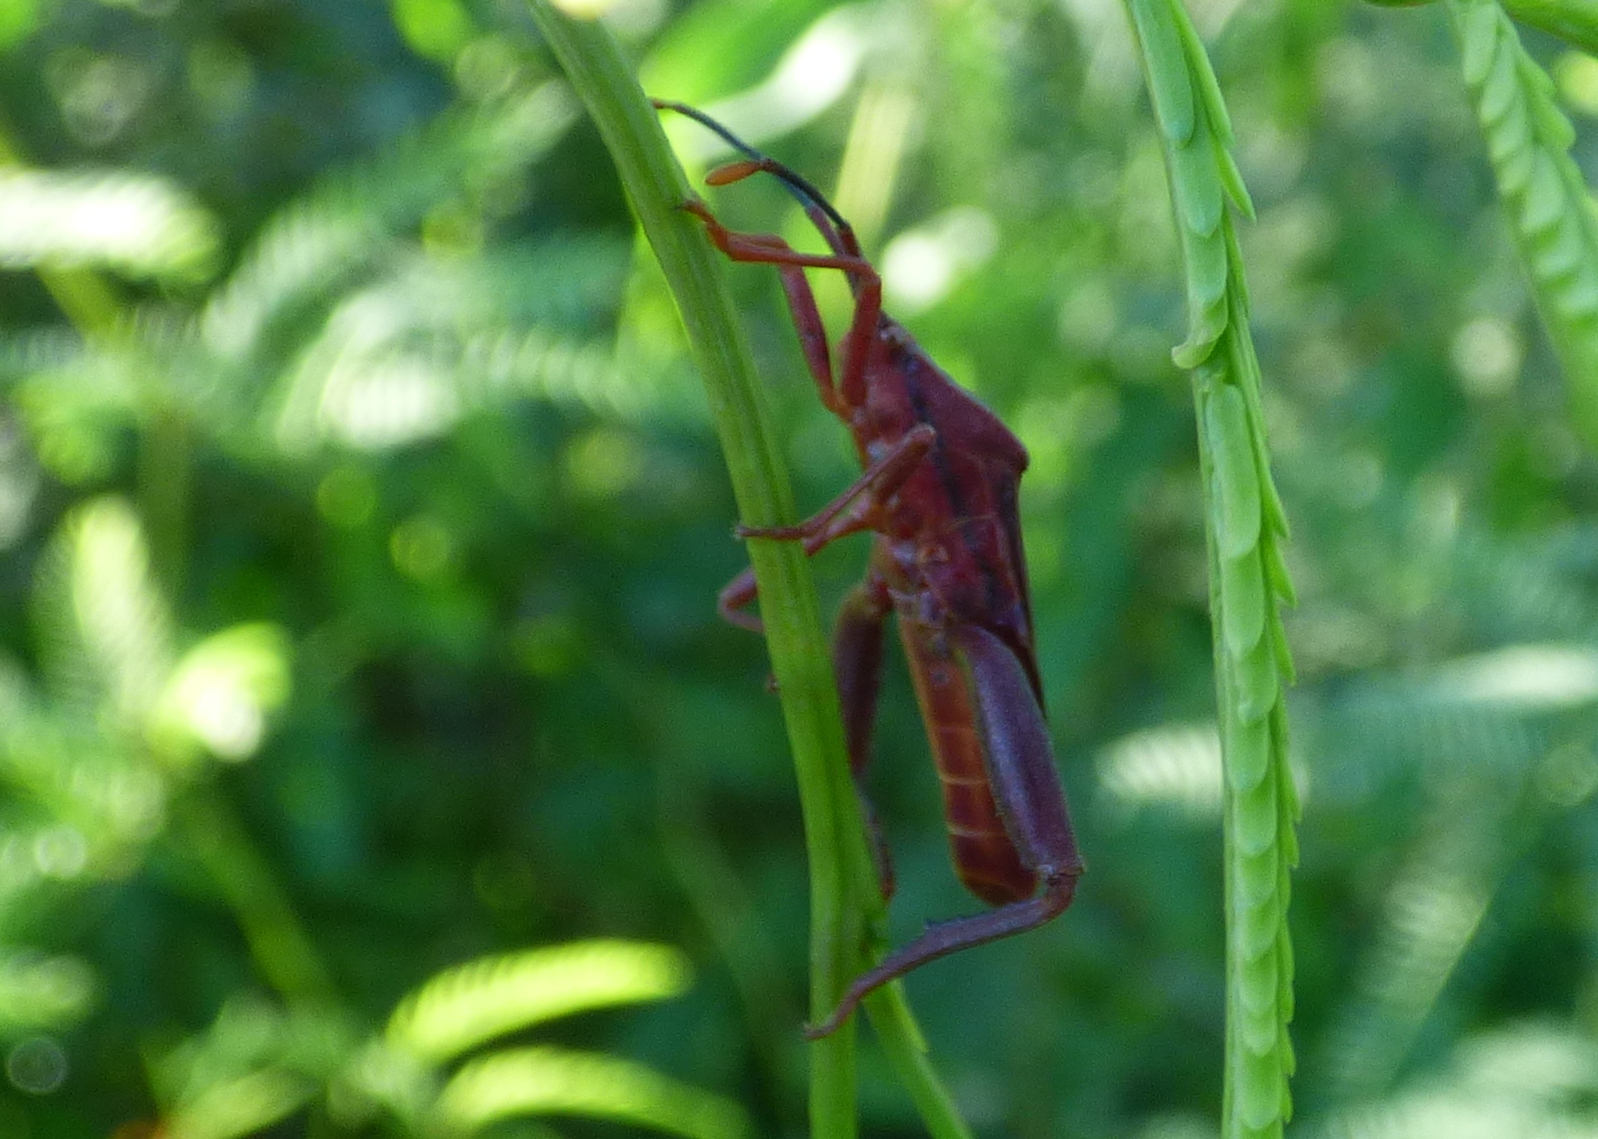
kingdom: Animalia
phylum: Arthropoda
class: Insecta
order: Hemiptera
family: Coreidae
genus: Athaumastus
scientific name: Athaumastus haematicus
